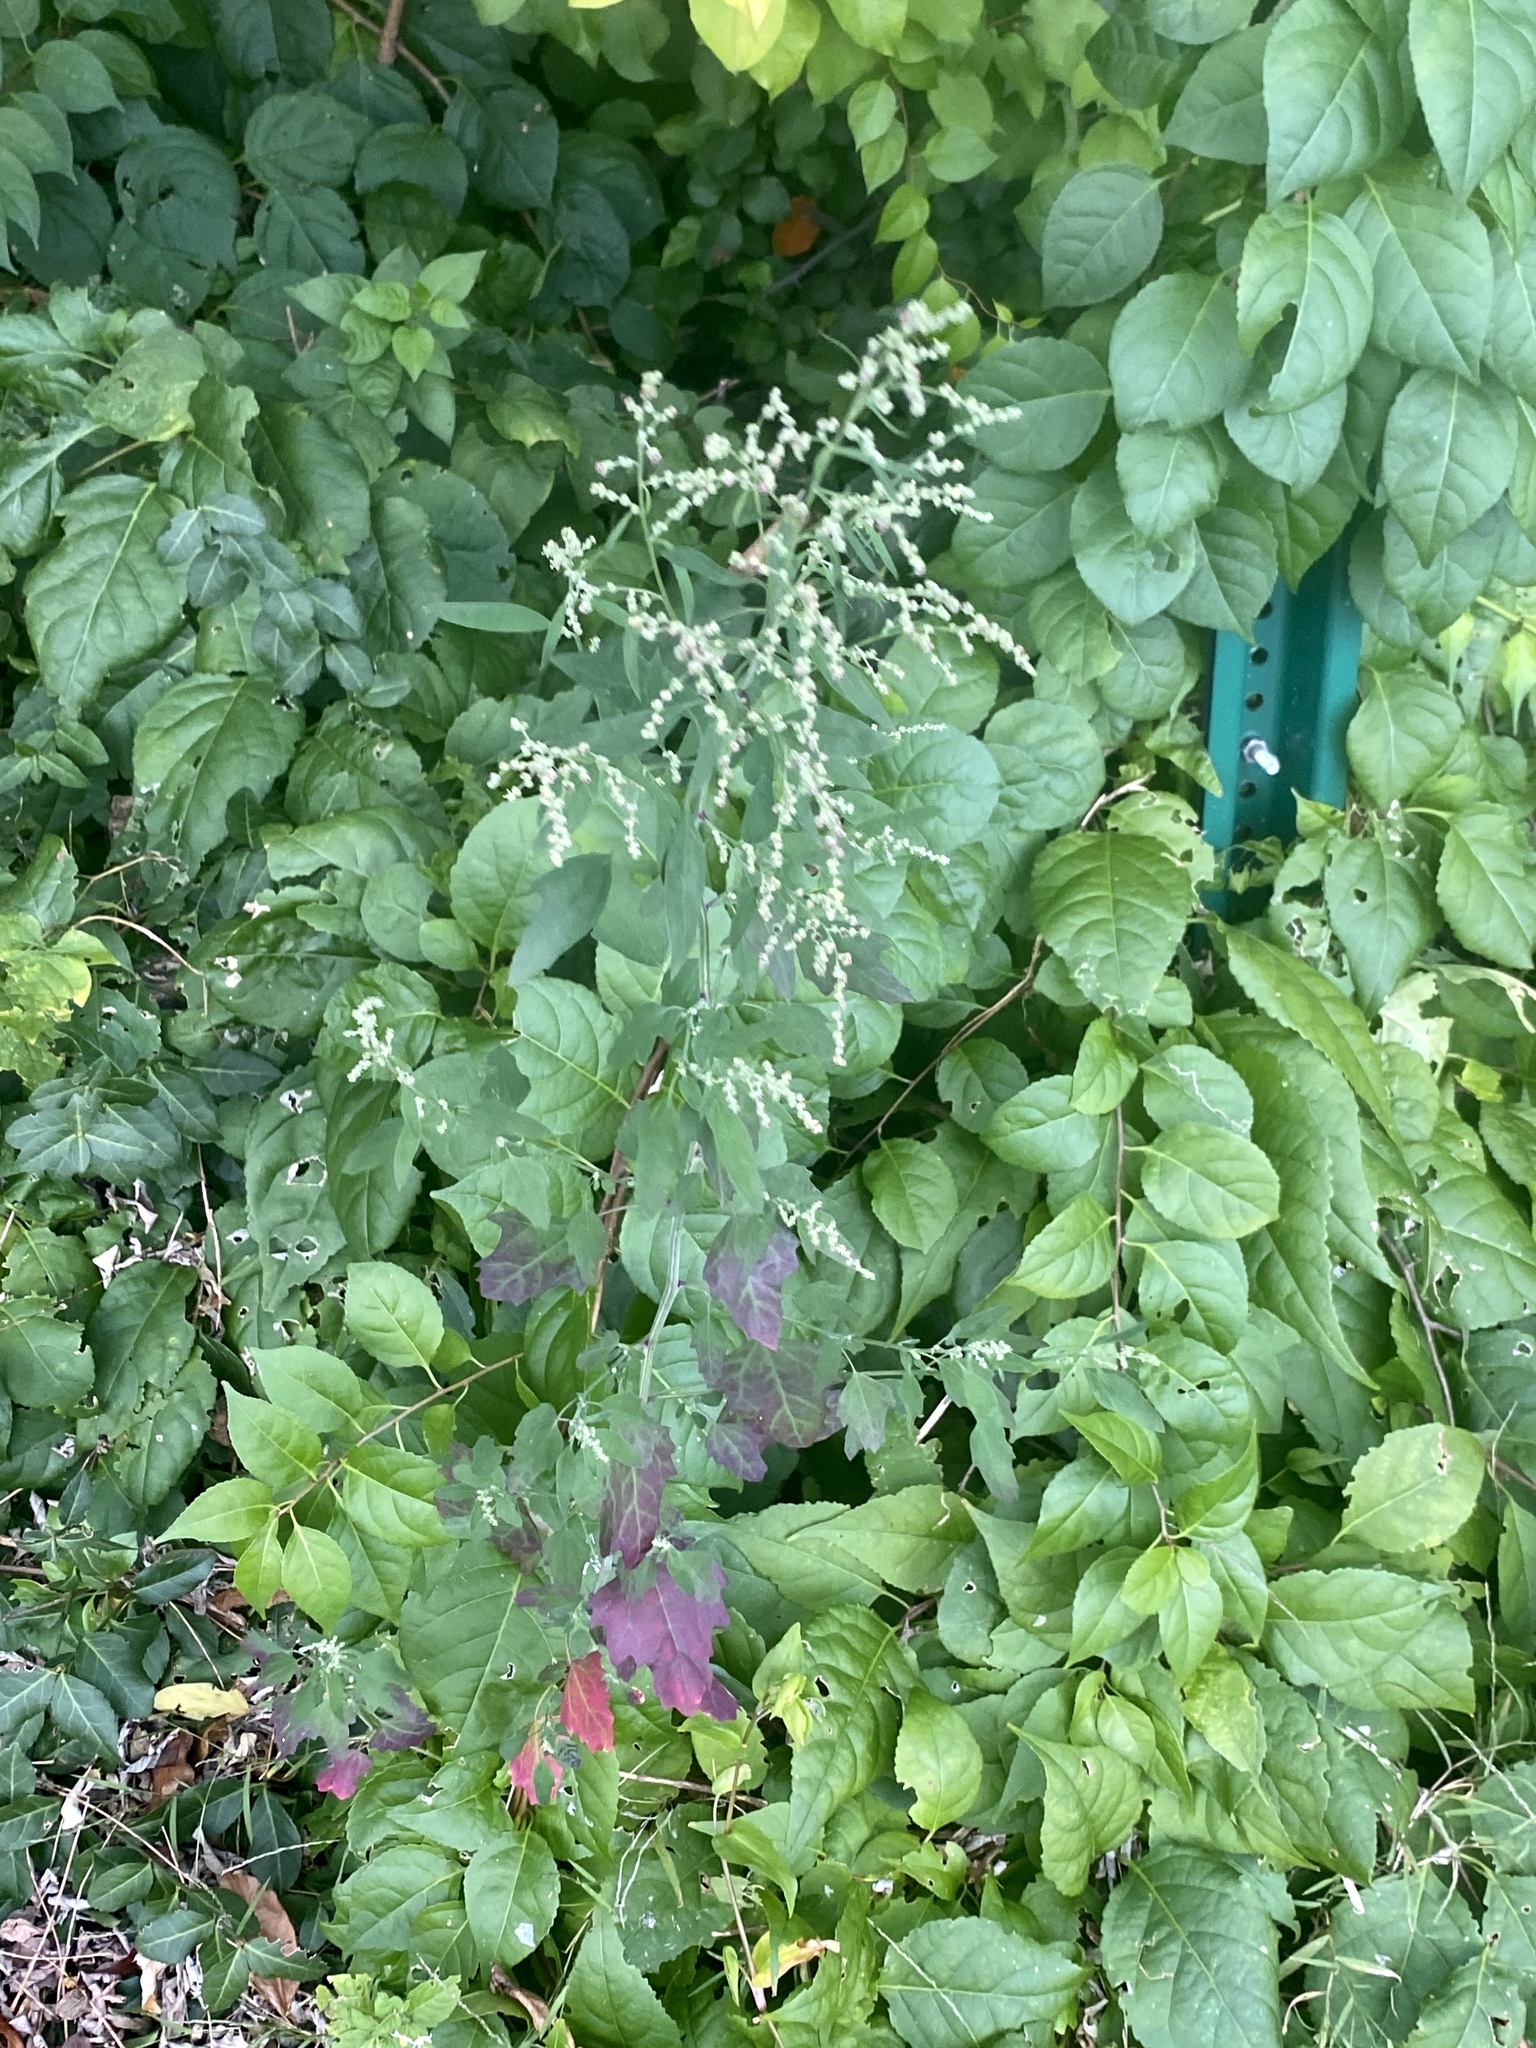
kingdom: Plantae
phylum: Tracheophyta
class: Magnoliopsida
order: Caryophyllales
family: Amaranthaceae
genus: Chenopodium
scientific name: Chenopodium album
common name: Fat-hen
